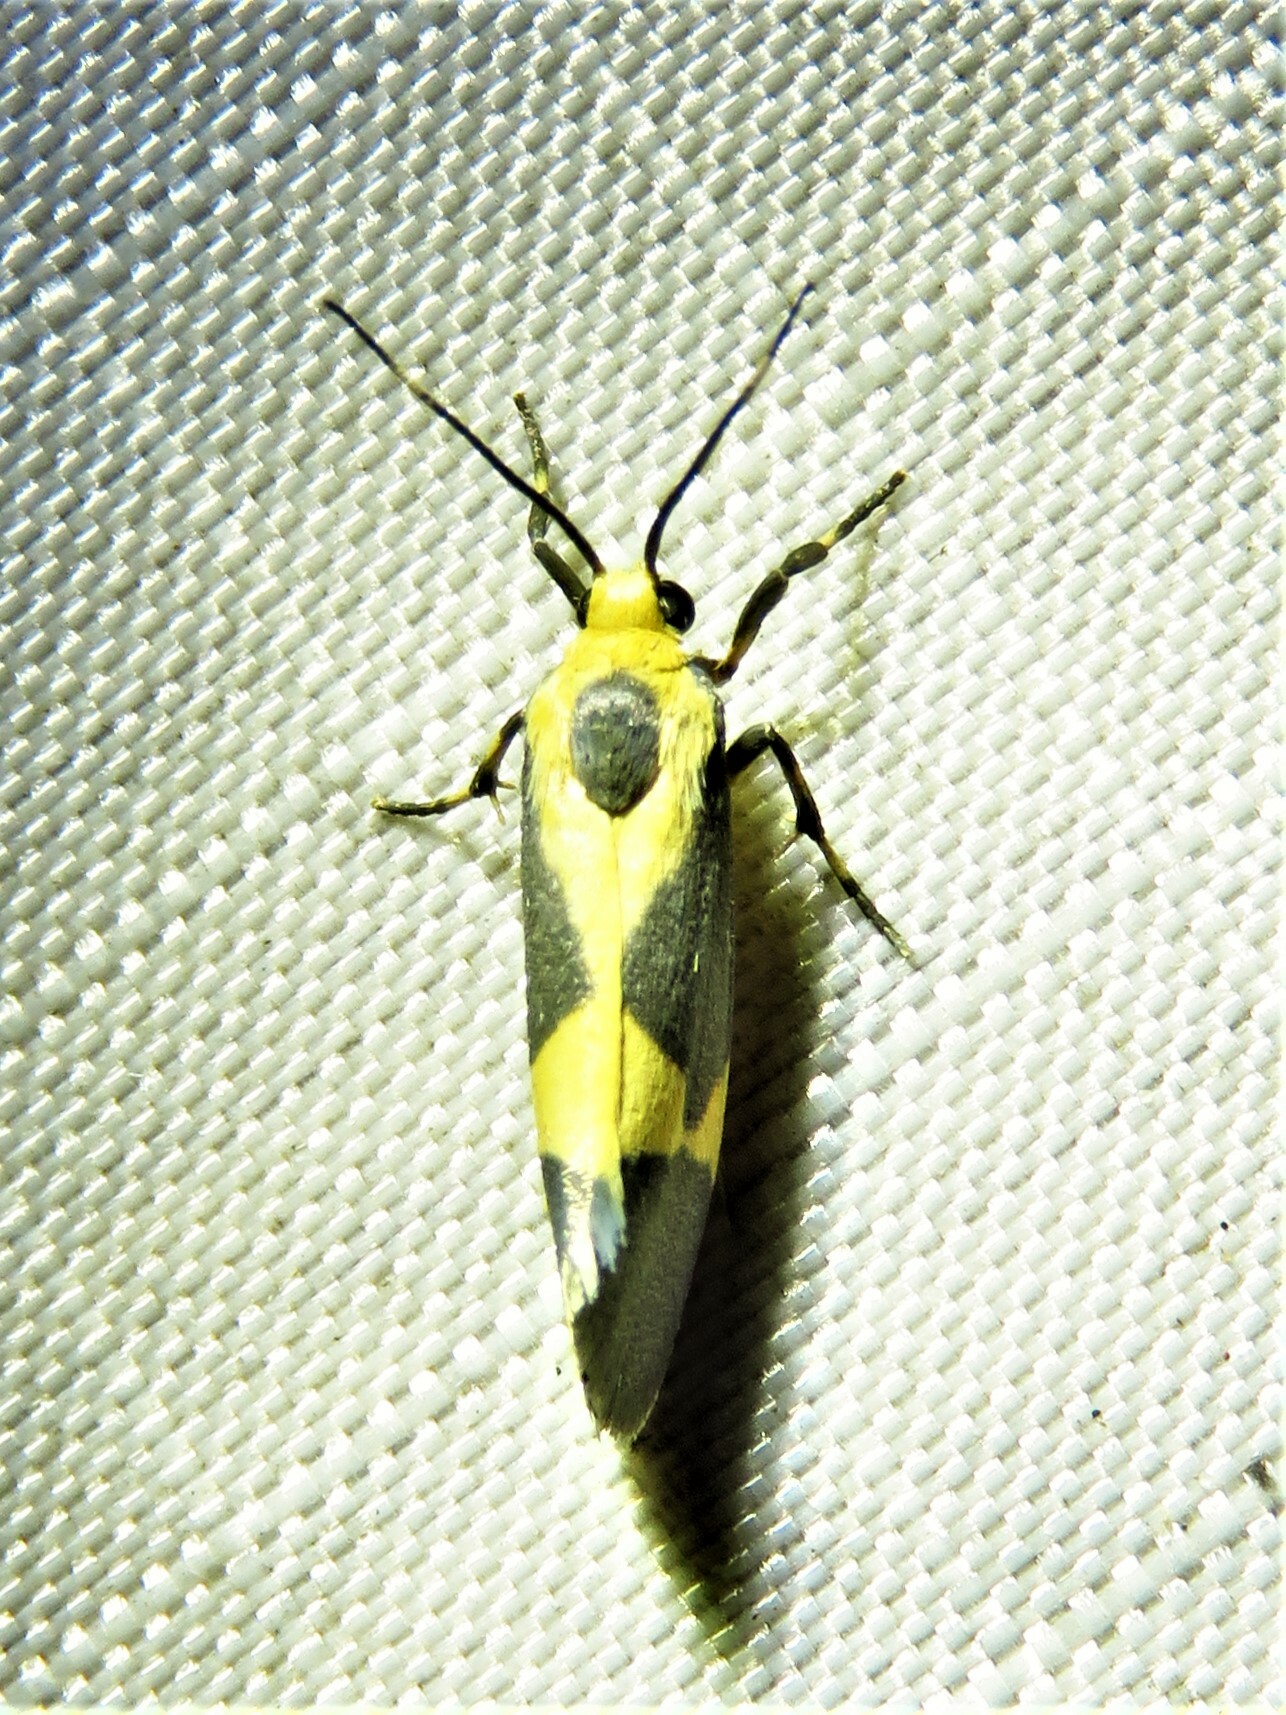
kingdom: Animalia
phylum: Arthropoda
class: Insecta
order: Lepidoptera
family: Erebidae
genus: Cisthene
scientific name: Cisthene unifascia
